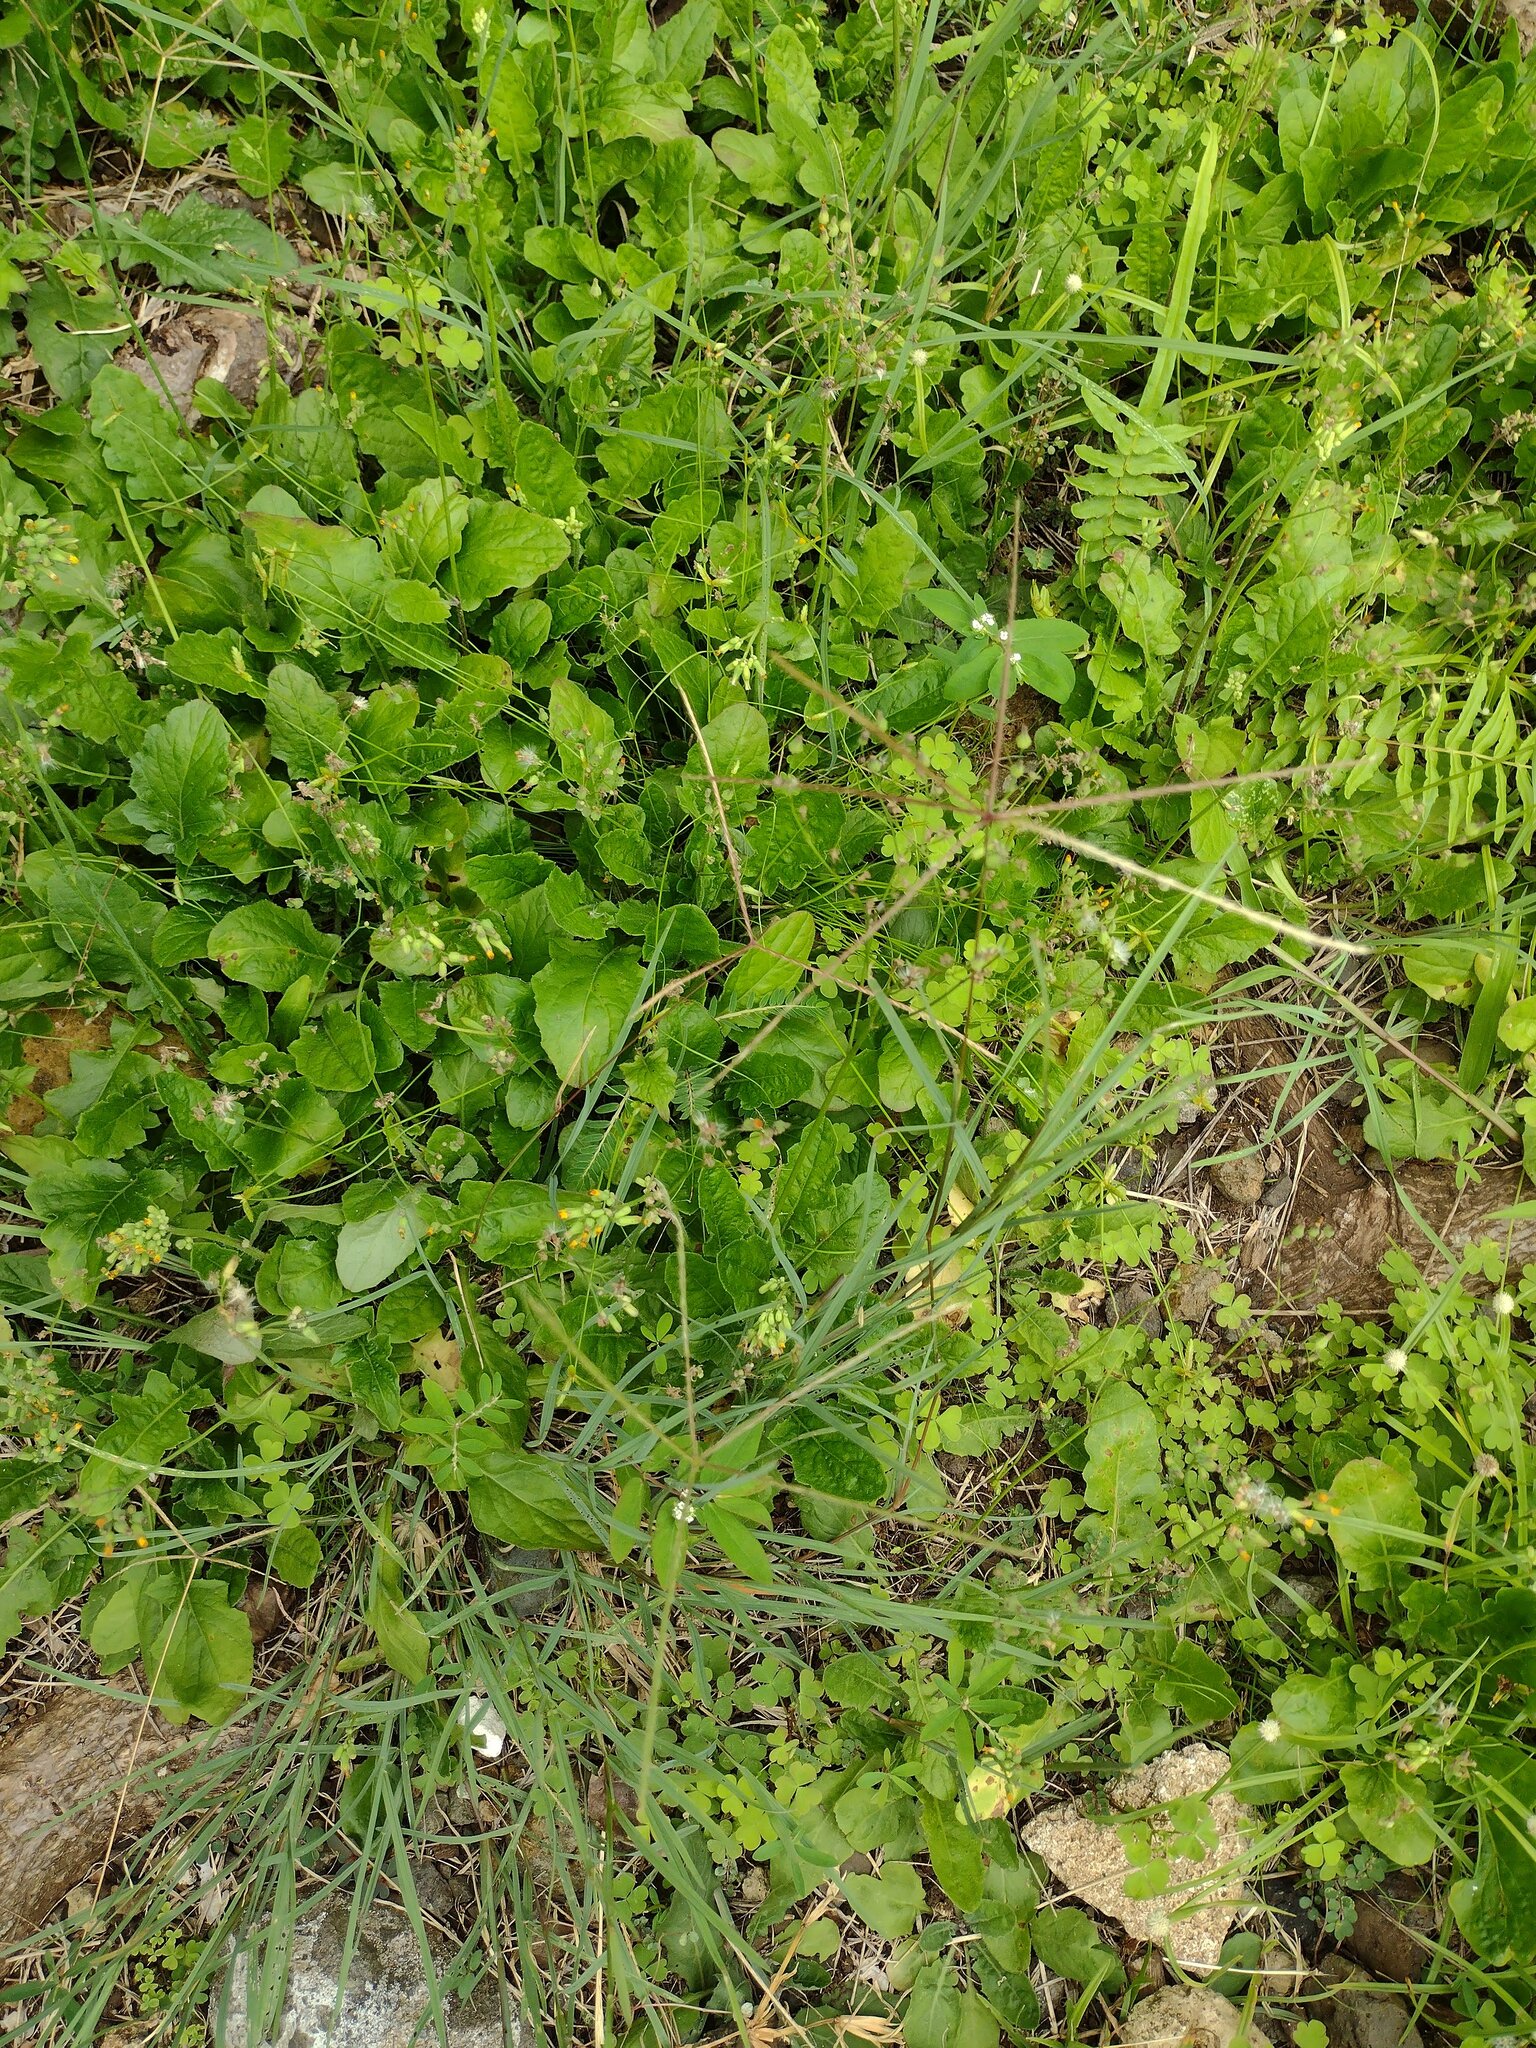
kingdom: Plantae
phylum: Tracheophyta
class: Magnoliopsida
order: Asterales
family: Asteraceae
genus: Youngia
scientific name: Youngia japonica
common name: Oriental false hawksbeard
